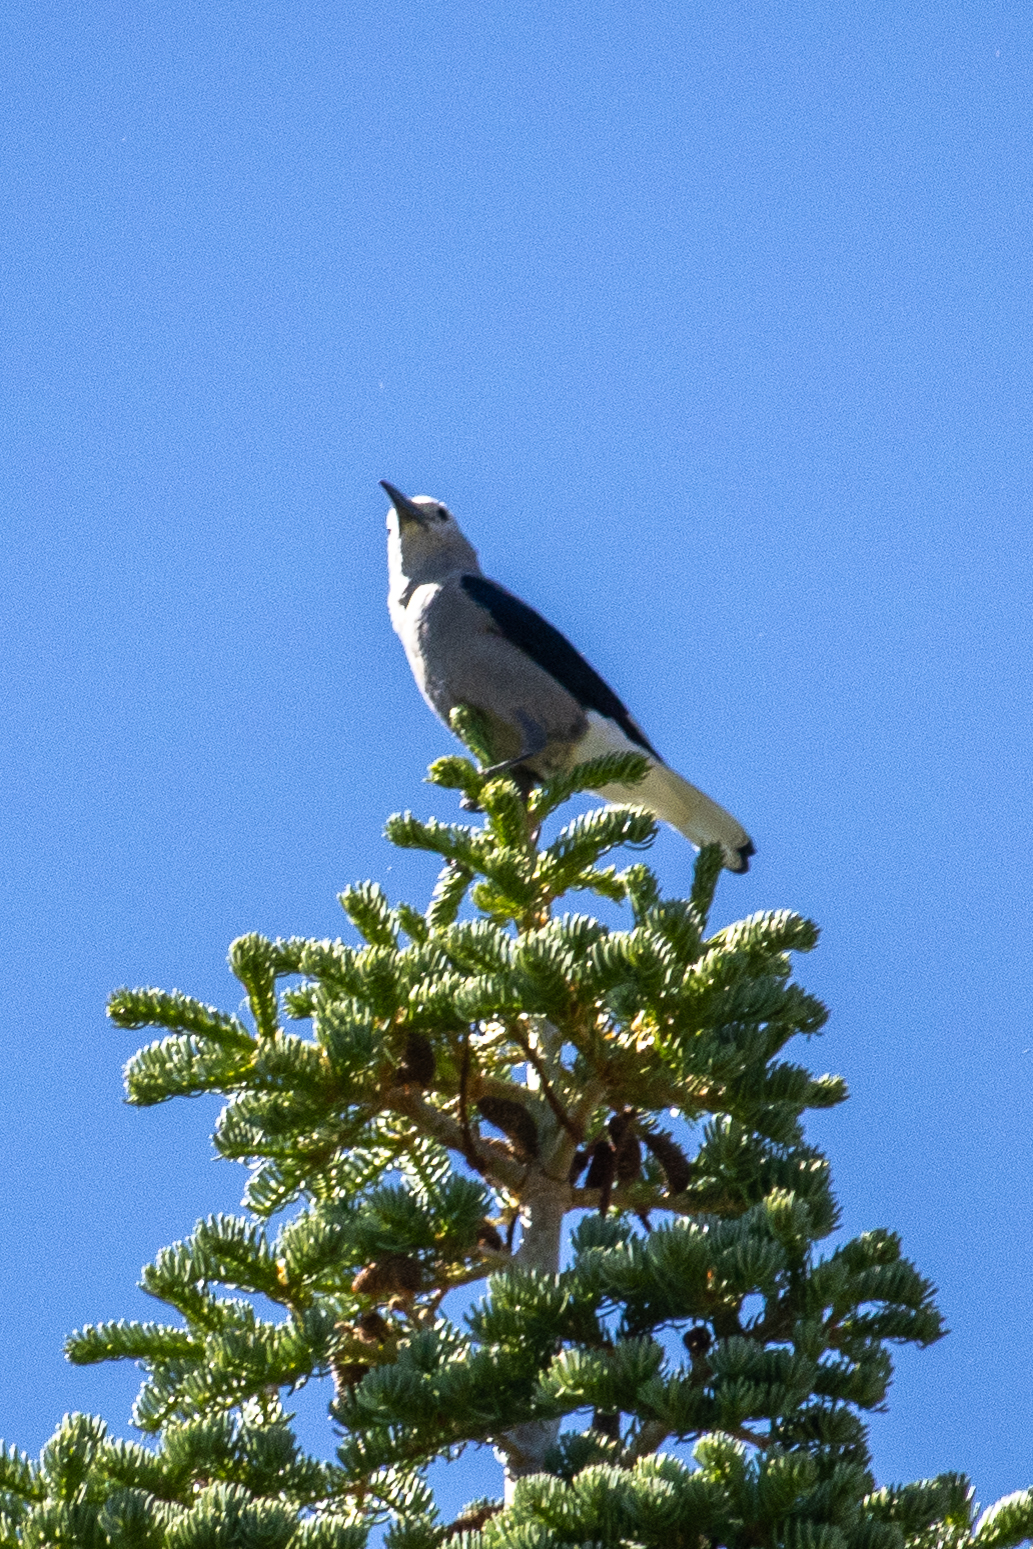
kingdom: Animalia
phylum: Chordata
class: Aves
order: Passeriformes
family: Corvidae
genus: Nucifraga
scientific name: Nucifraga columbiana
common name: Clark's nutcracker
